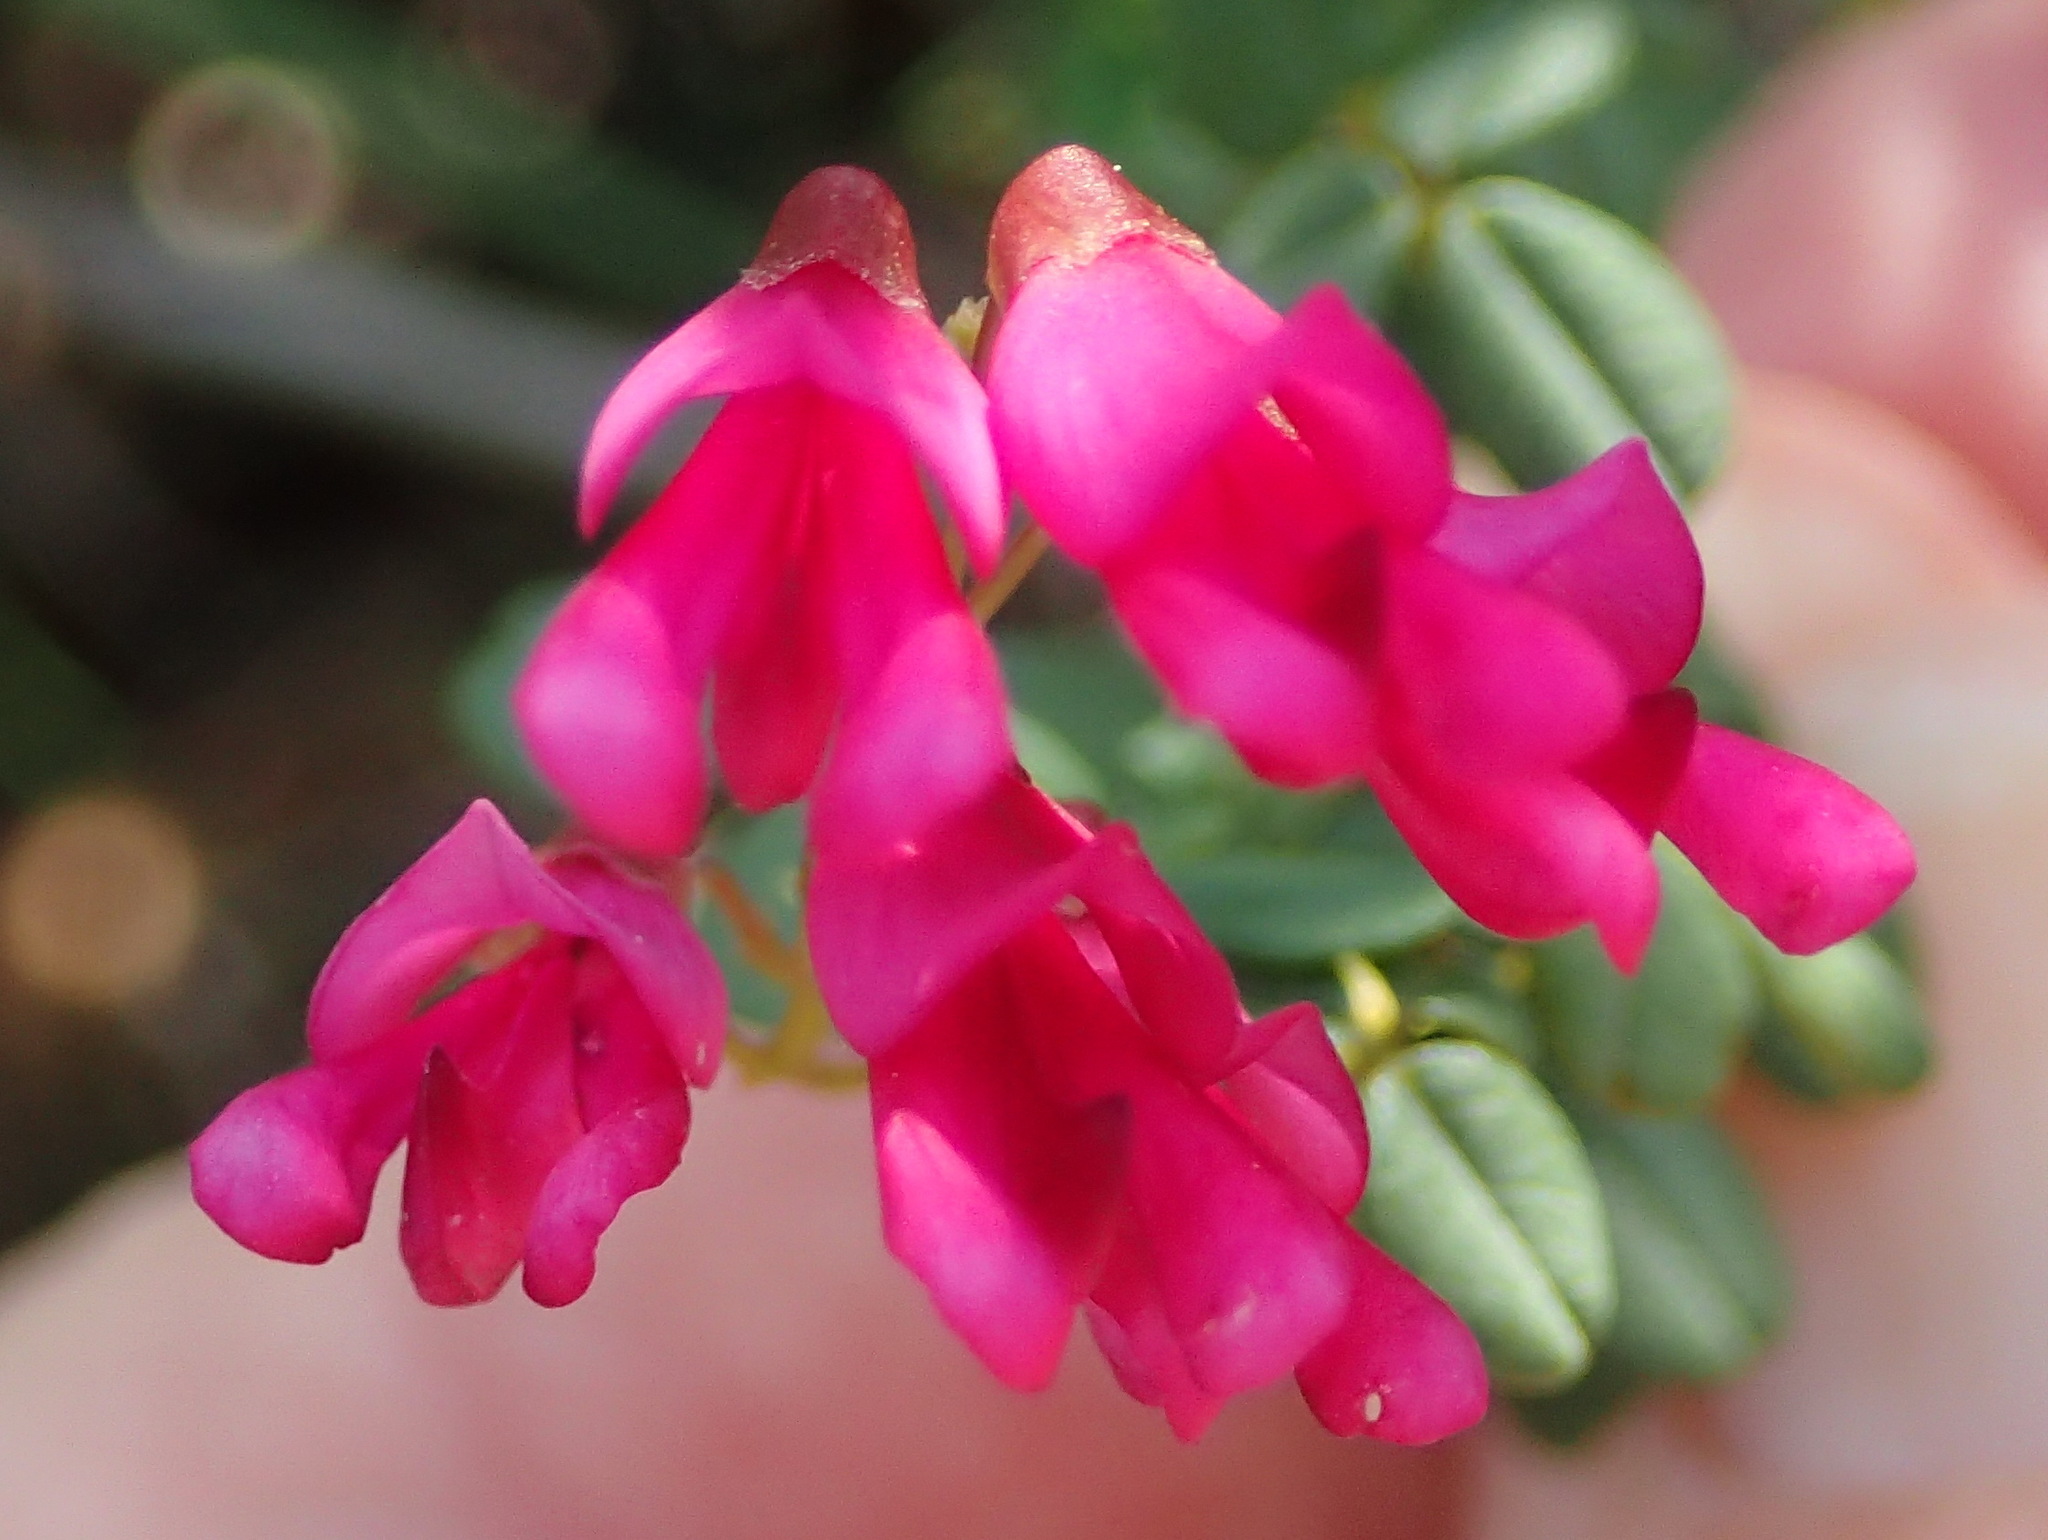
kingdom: Plantae
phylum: Tracheophyta
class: Magnoliopsida
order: Fabales
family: Fabaceae
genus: Hypocalyptus
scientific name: Hypocalyptus oxalidifolius
